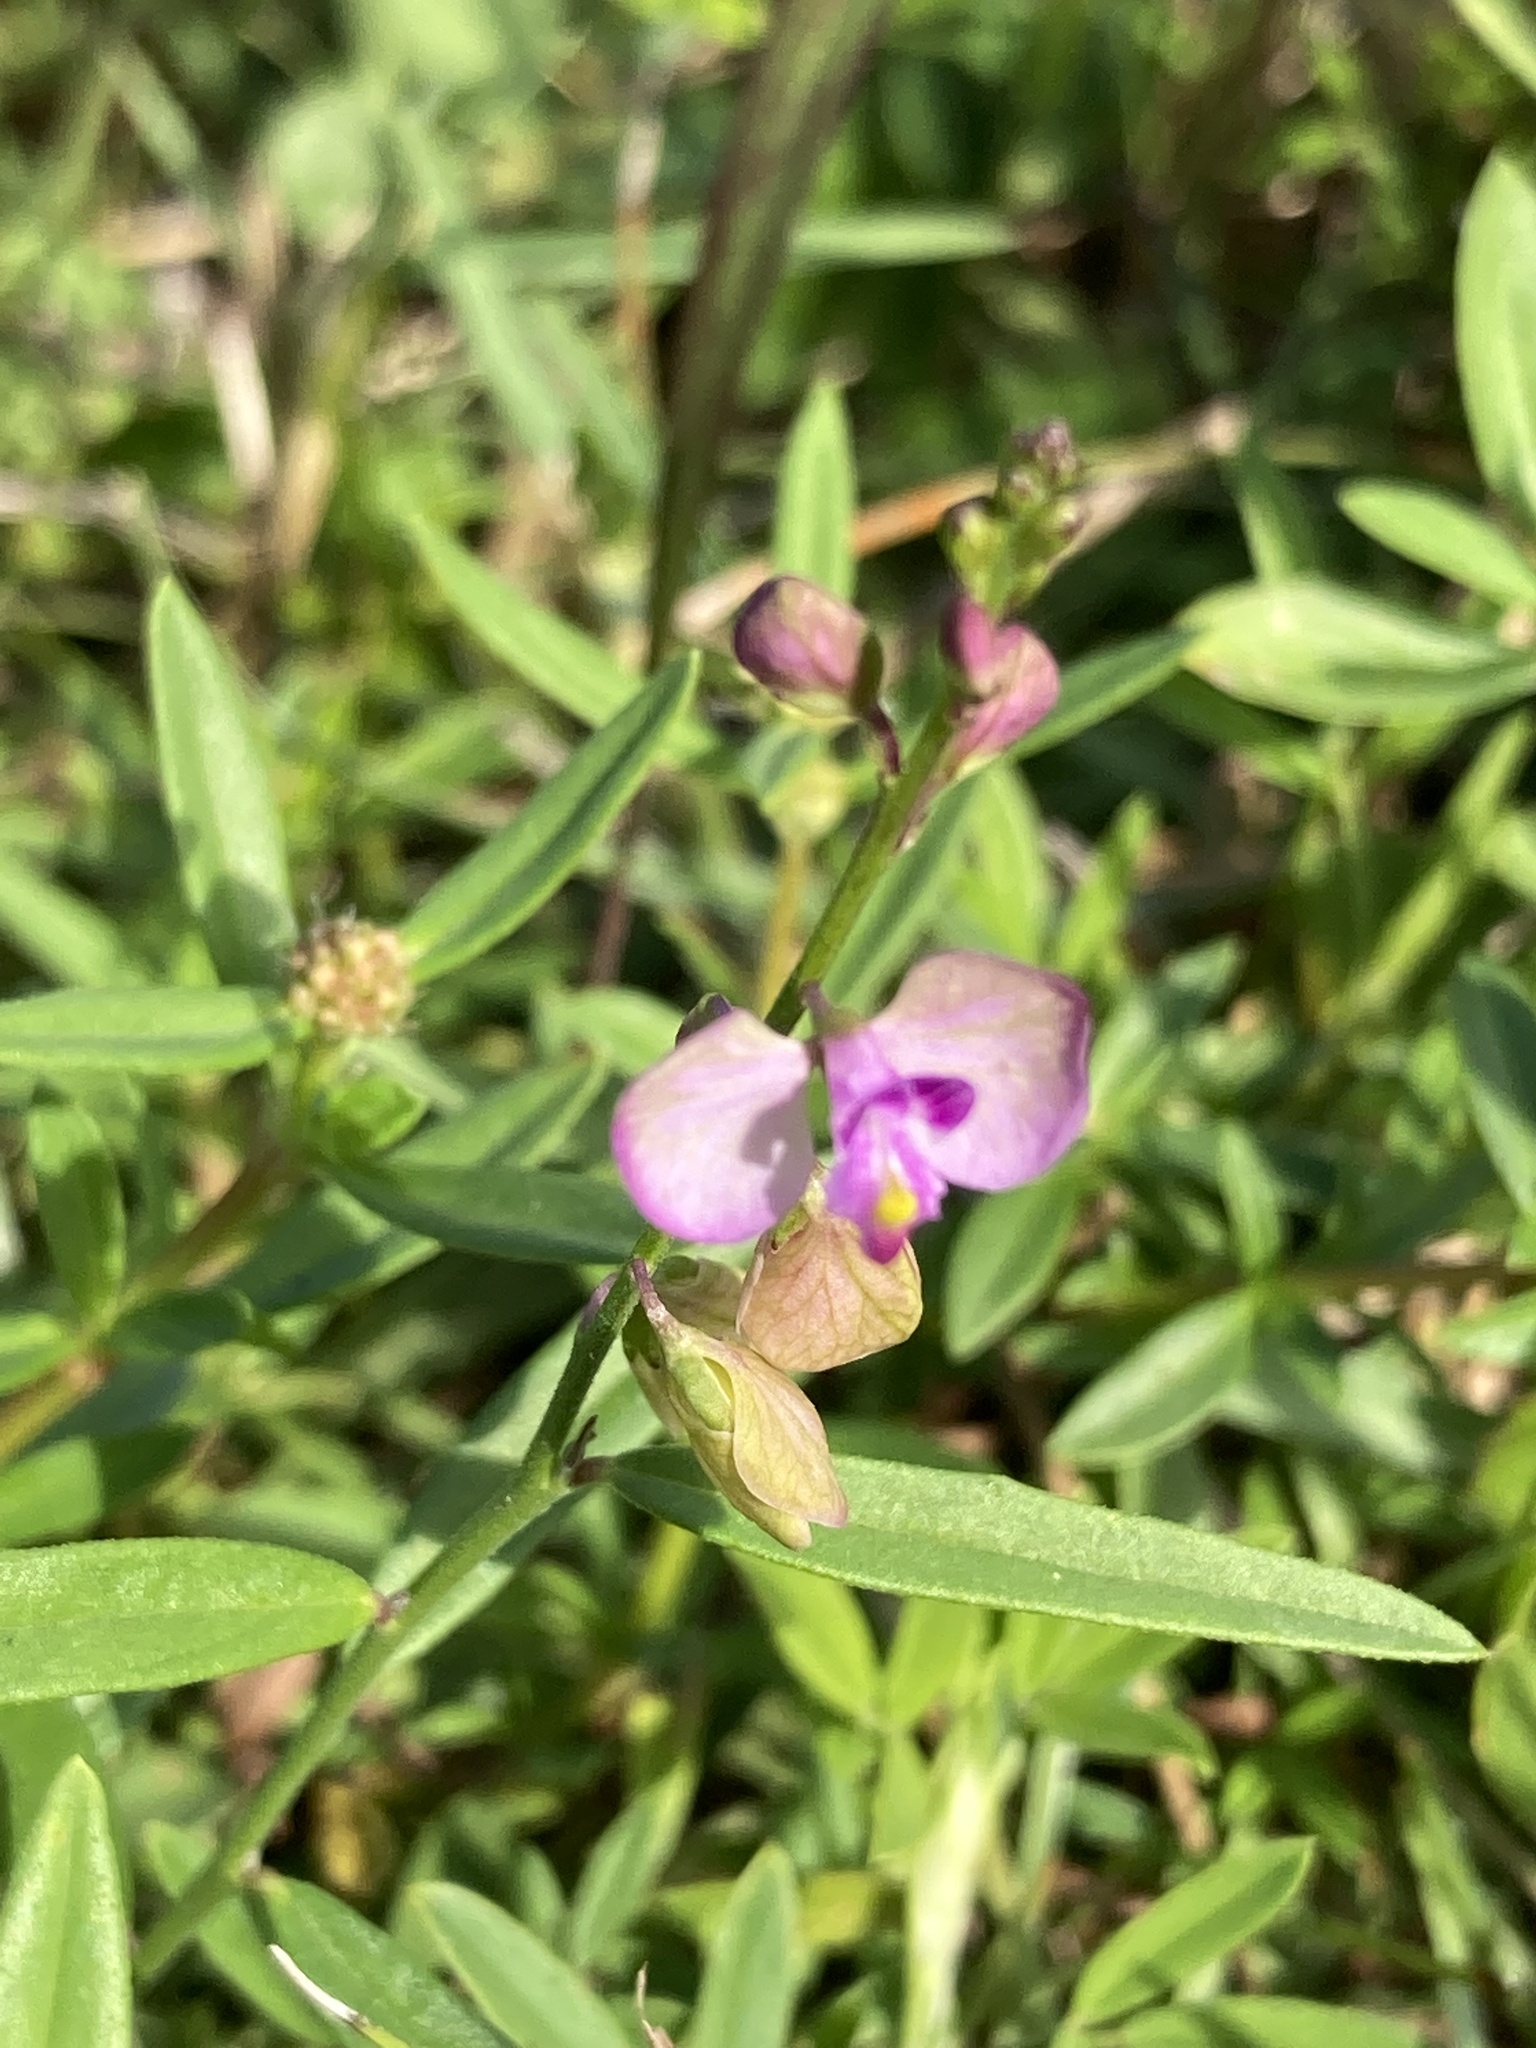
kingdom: Plantae
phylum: Tracheophyta
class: Magnoliopsida
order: Fabales
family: Polygalaceae
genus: Asemeia
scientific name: Asemeia grandiflora
